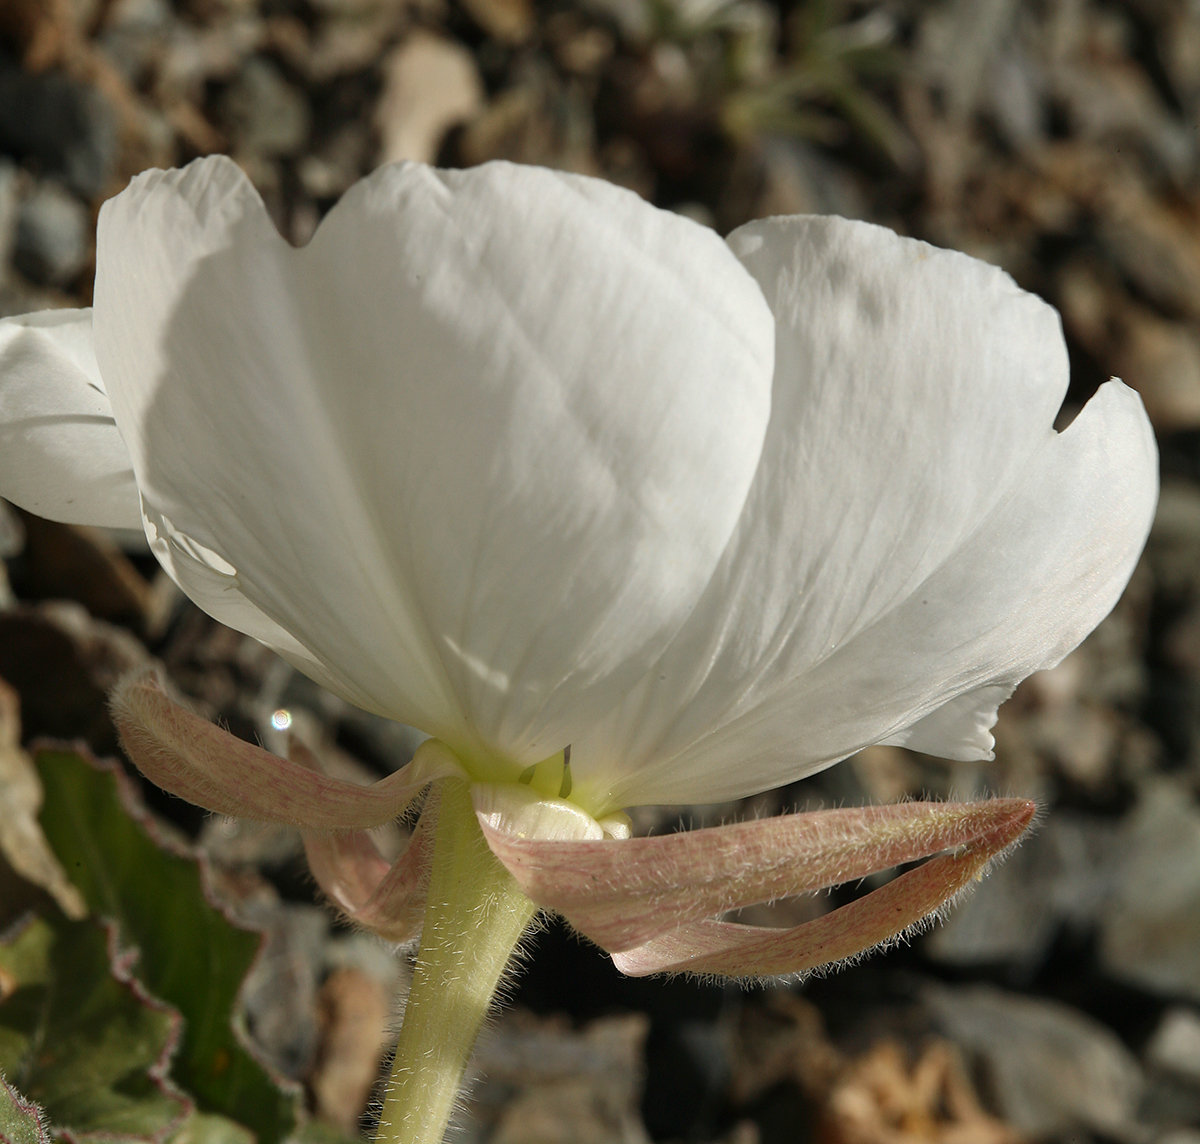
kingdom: Plantae
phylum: Tracheophyta
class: Magnoliopsida
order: Myrtales
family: Onagraceae
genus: Oenothera
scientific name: Oenothera cespitosa
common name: Tufted evening-primrose
